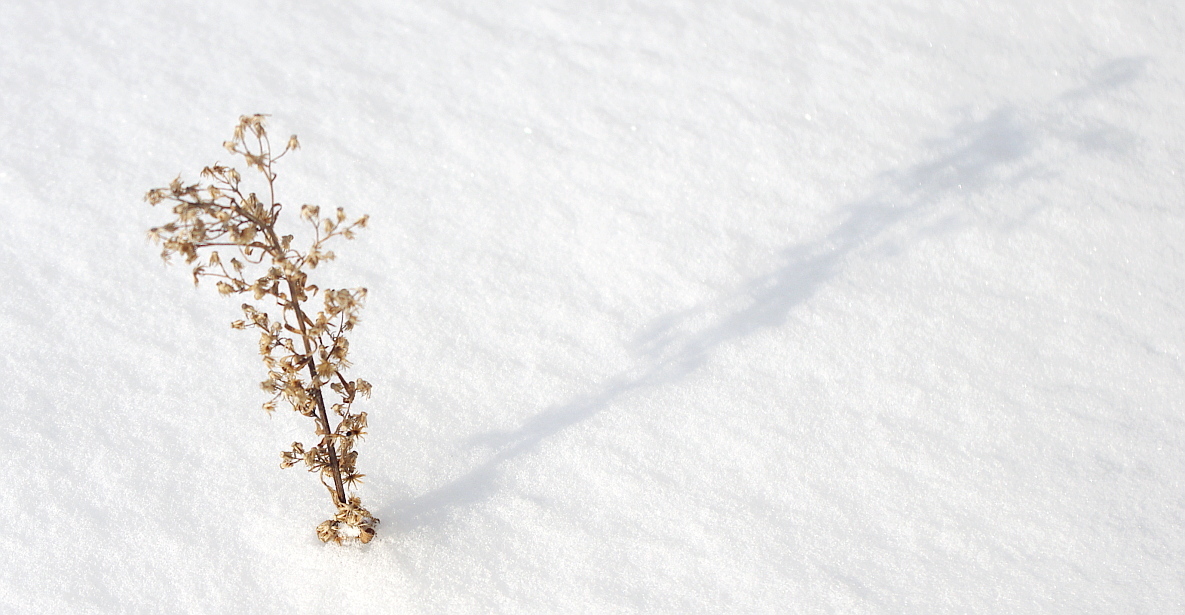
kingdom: Plantae
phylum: Tracheophyta
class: Magnoliopsida
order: Asterales
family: Asteraceae
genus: Erigeron
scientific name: Erigeron canadensis
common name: Canadian fleabane
